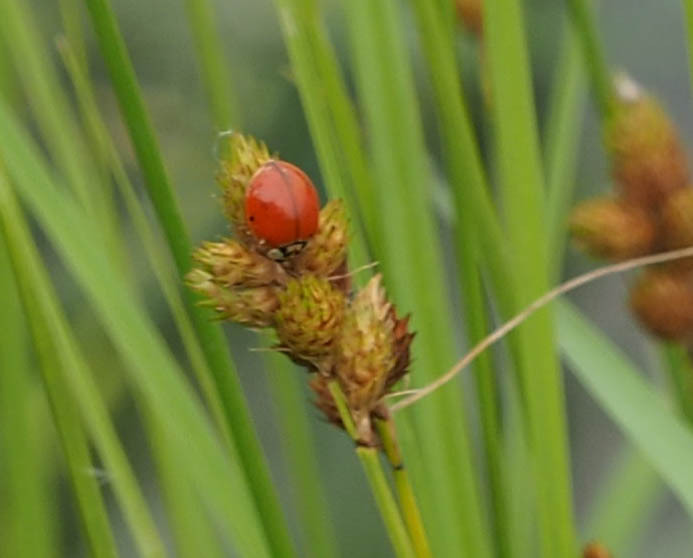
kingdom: Animalia
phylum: Arthropoda
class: Insecta
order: Coleoptera
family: Coccinellidae
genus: Harmonia
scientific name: Harmonia axyridis
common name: Harlequin ladybird
